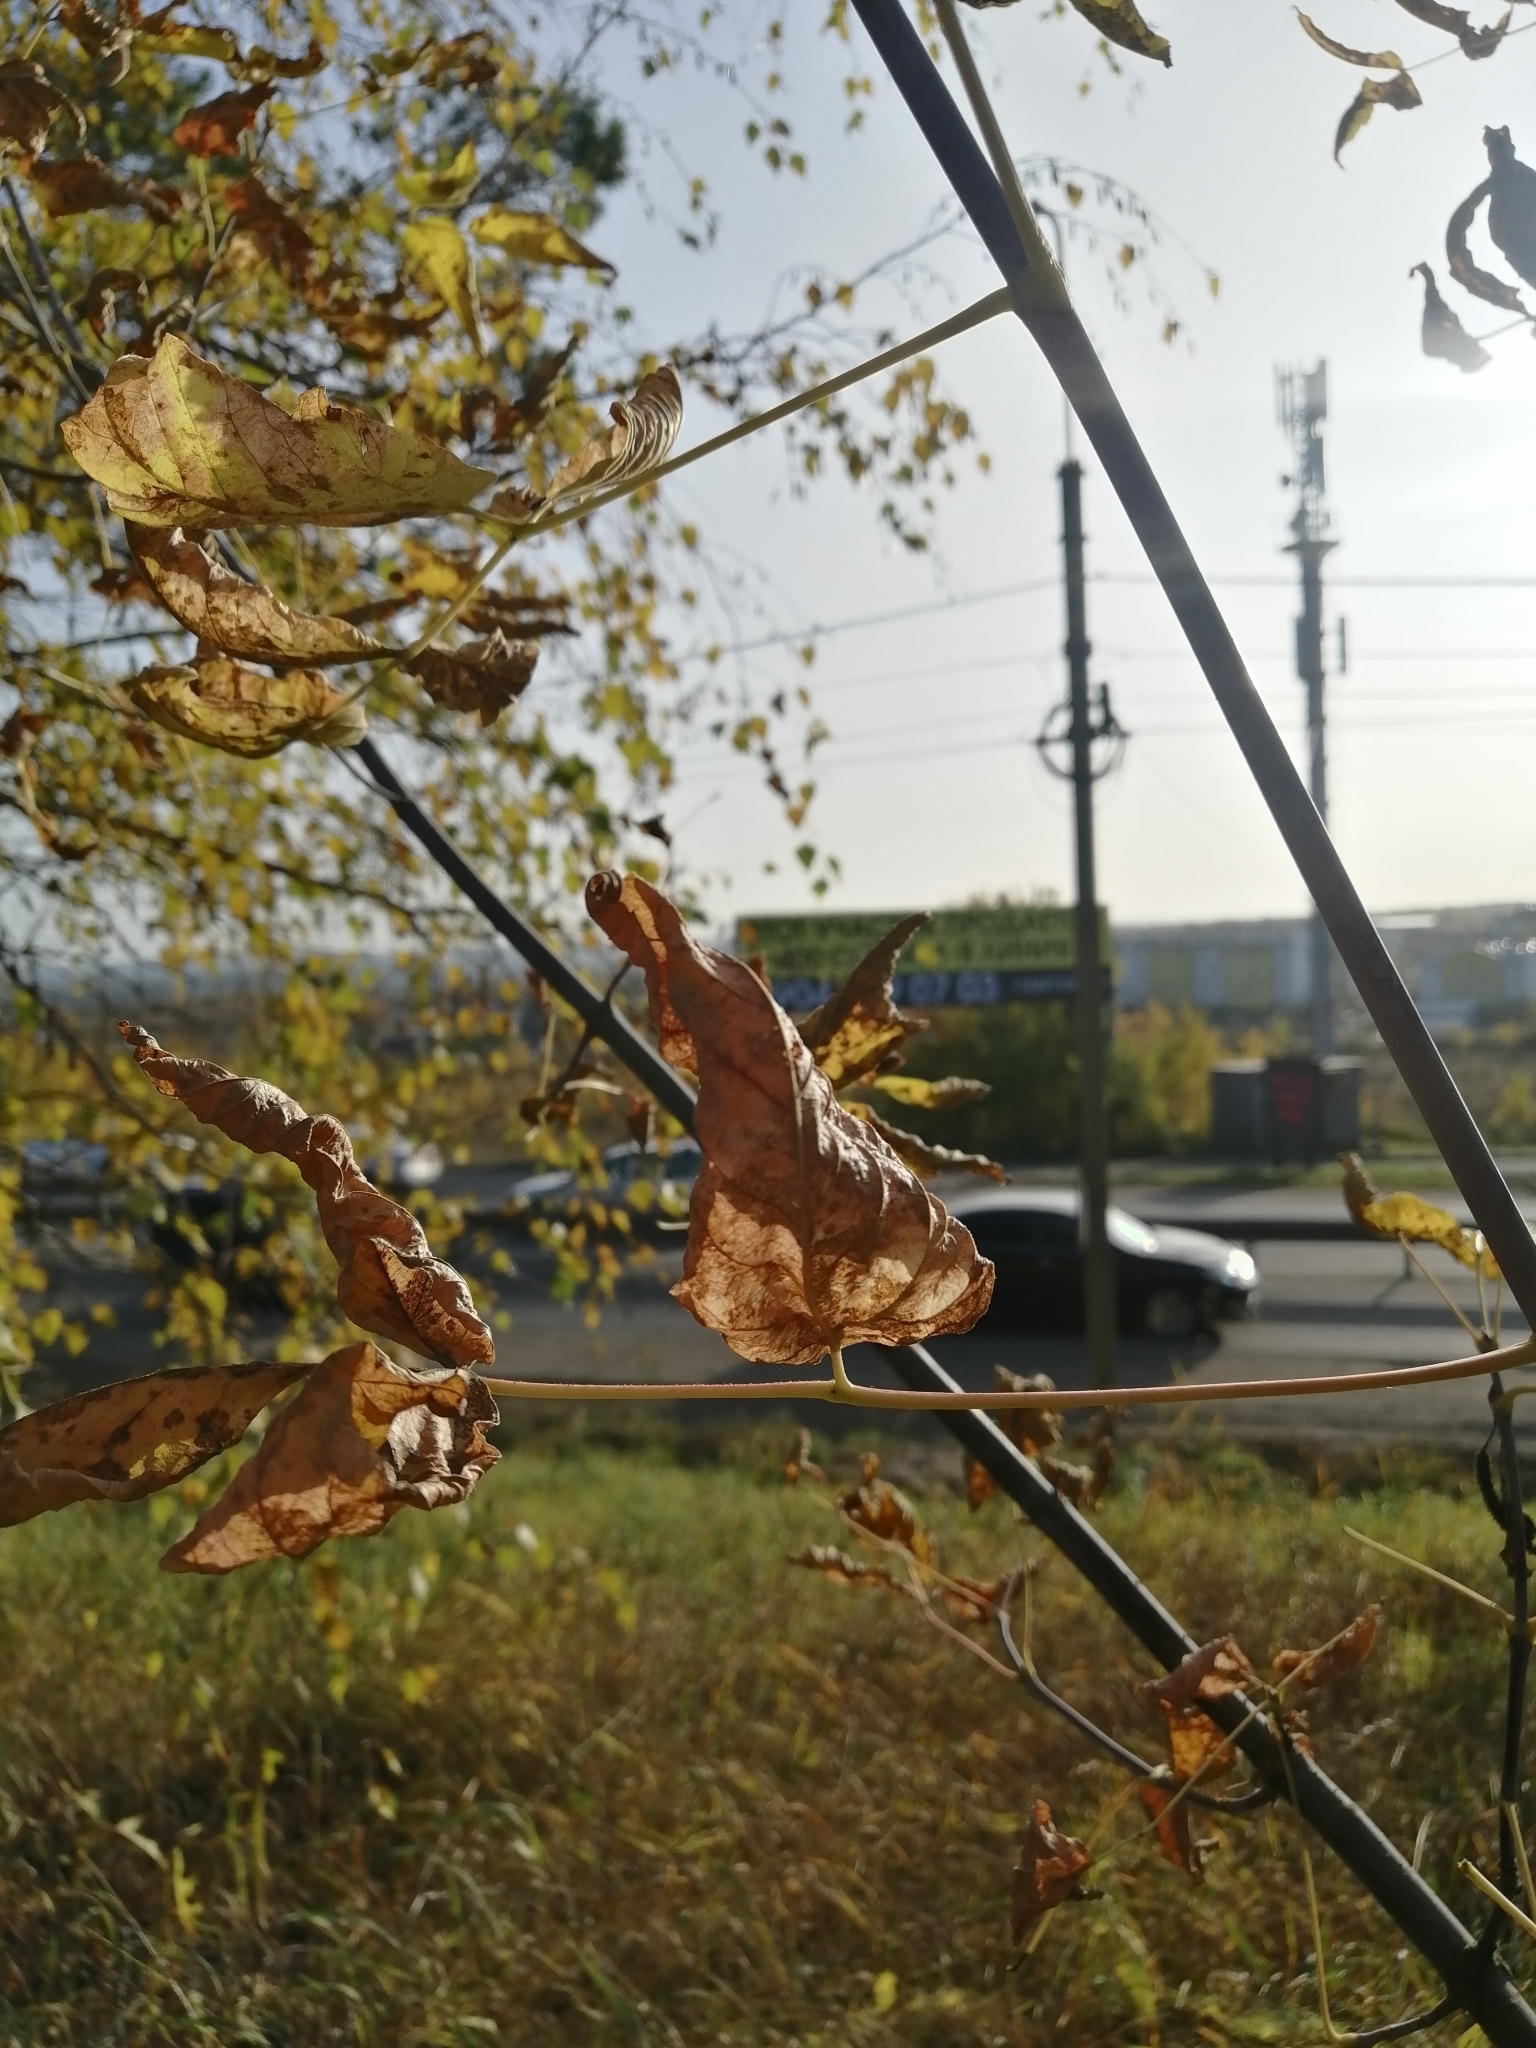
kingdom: Plantae
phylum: Tracheophyta
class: Magnoliopsida
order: Sapindales
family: Sapindaceae
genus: Acer
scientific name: Acer negundo
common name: Ashleaf maple
